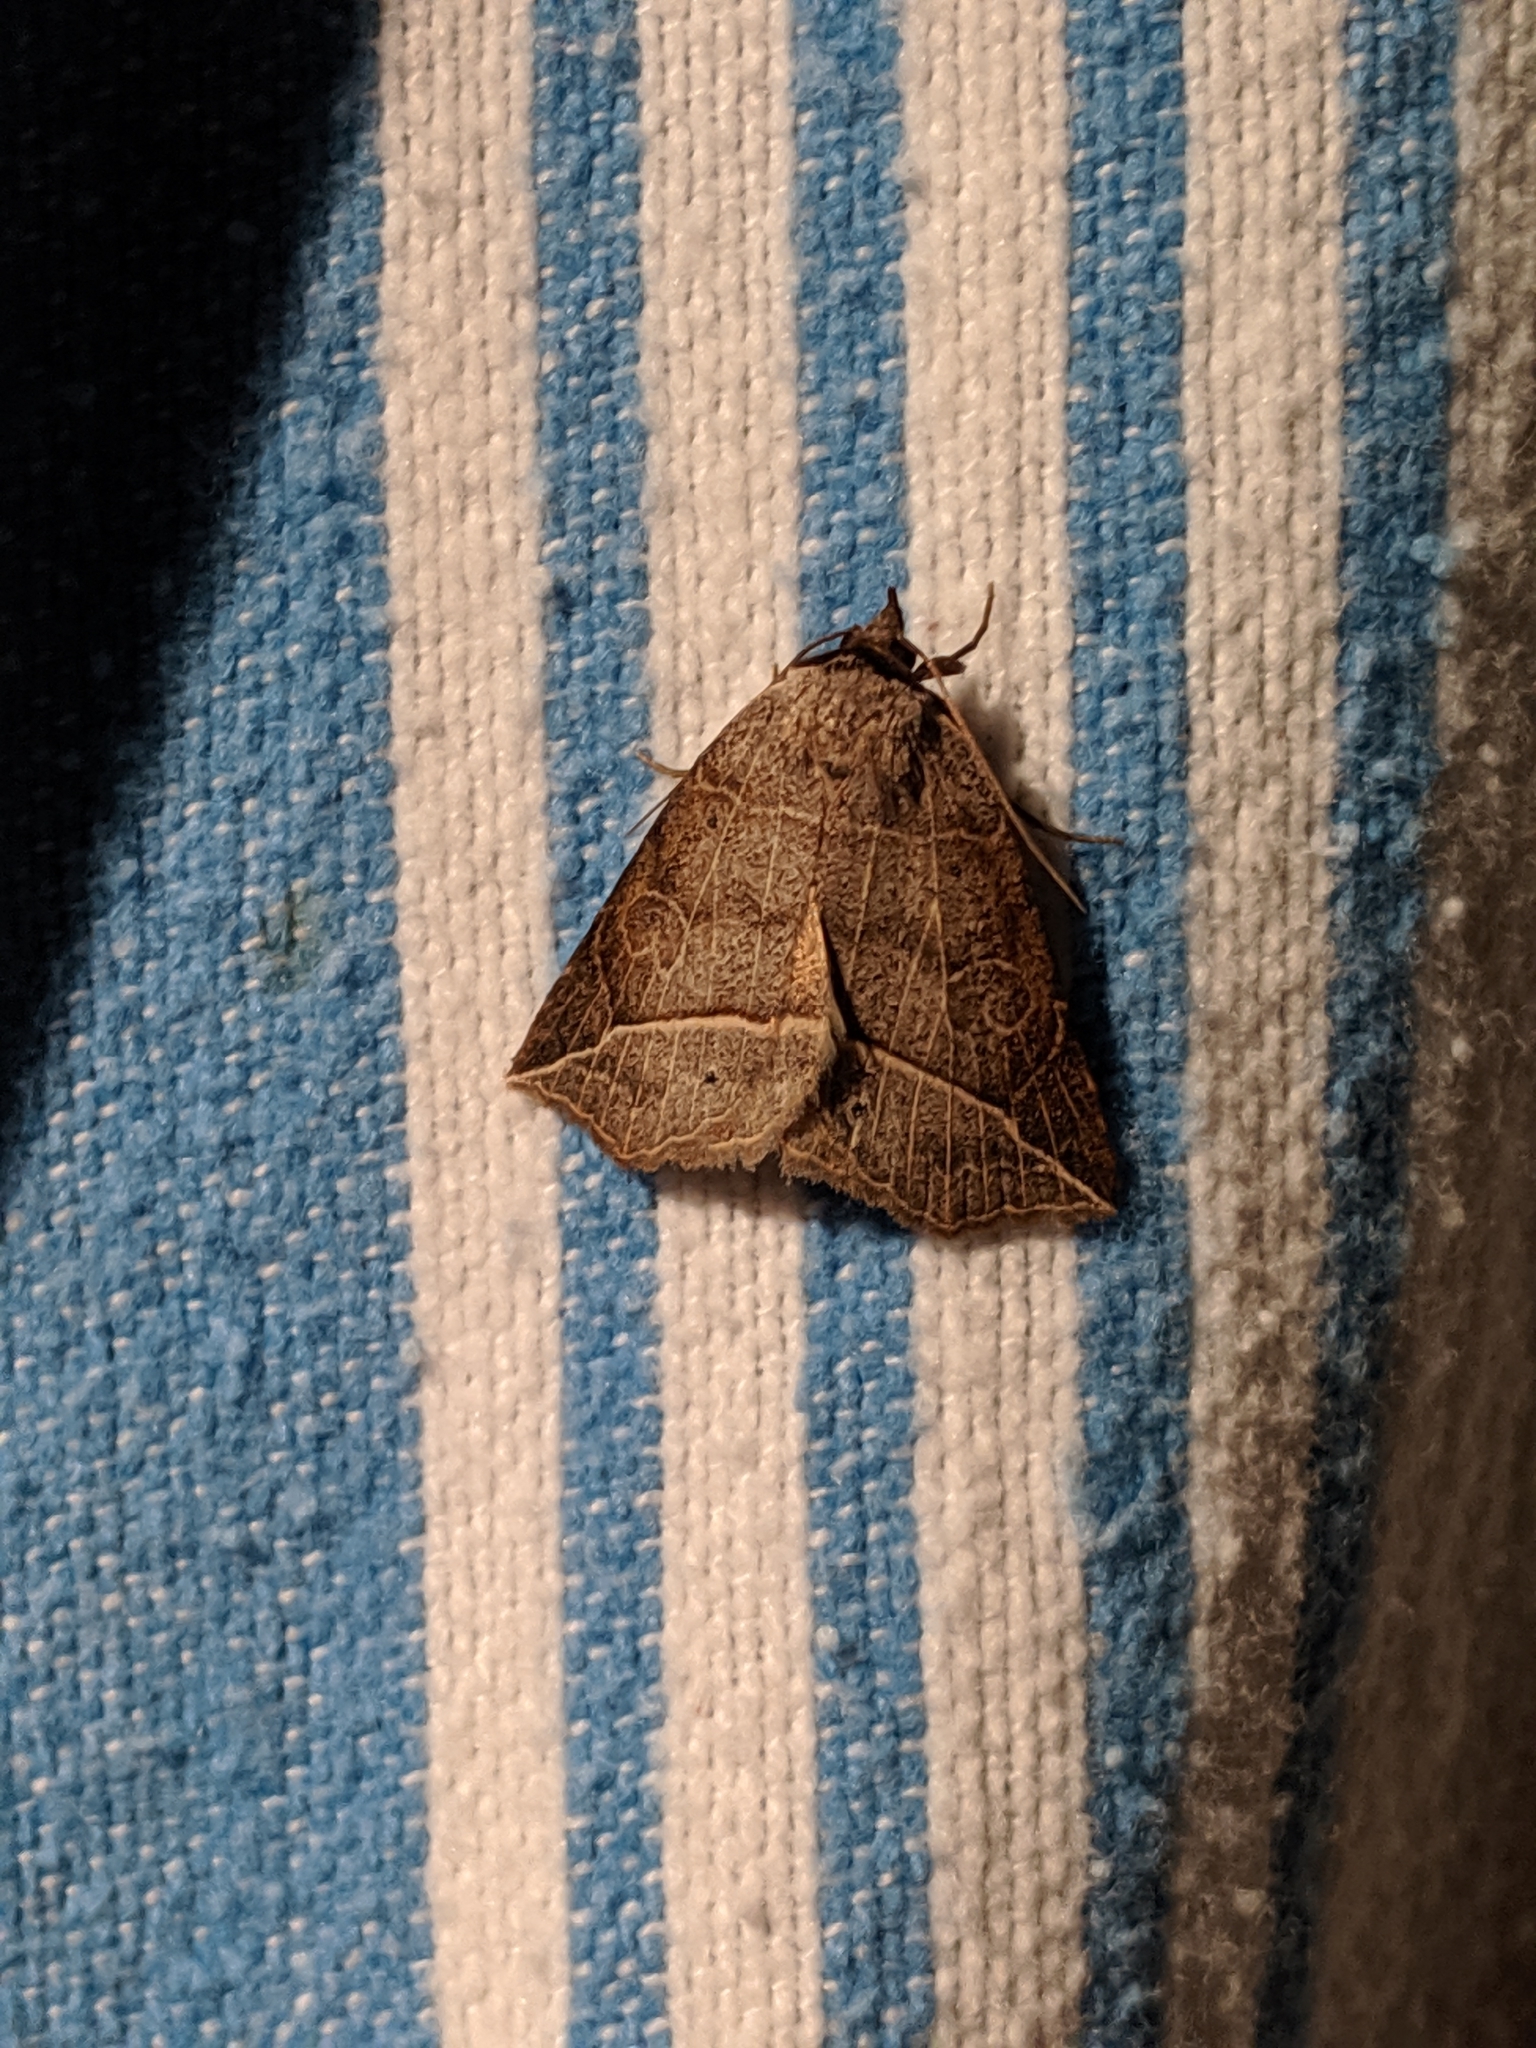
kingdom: Animalia
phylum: Arthropoda
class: Insecta
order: Lepidoptera
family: Erebidae
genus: Isogona
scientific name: Isogona tenuis
